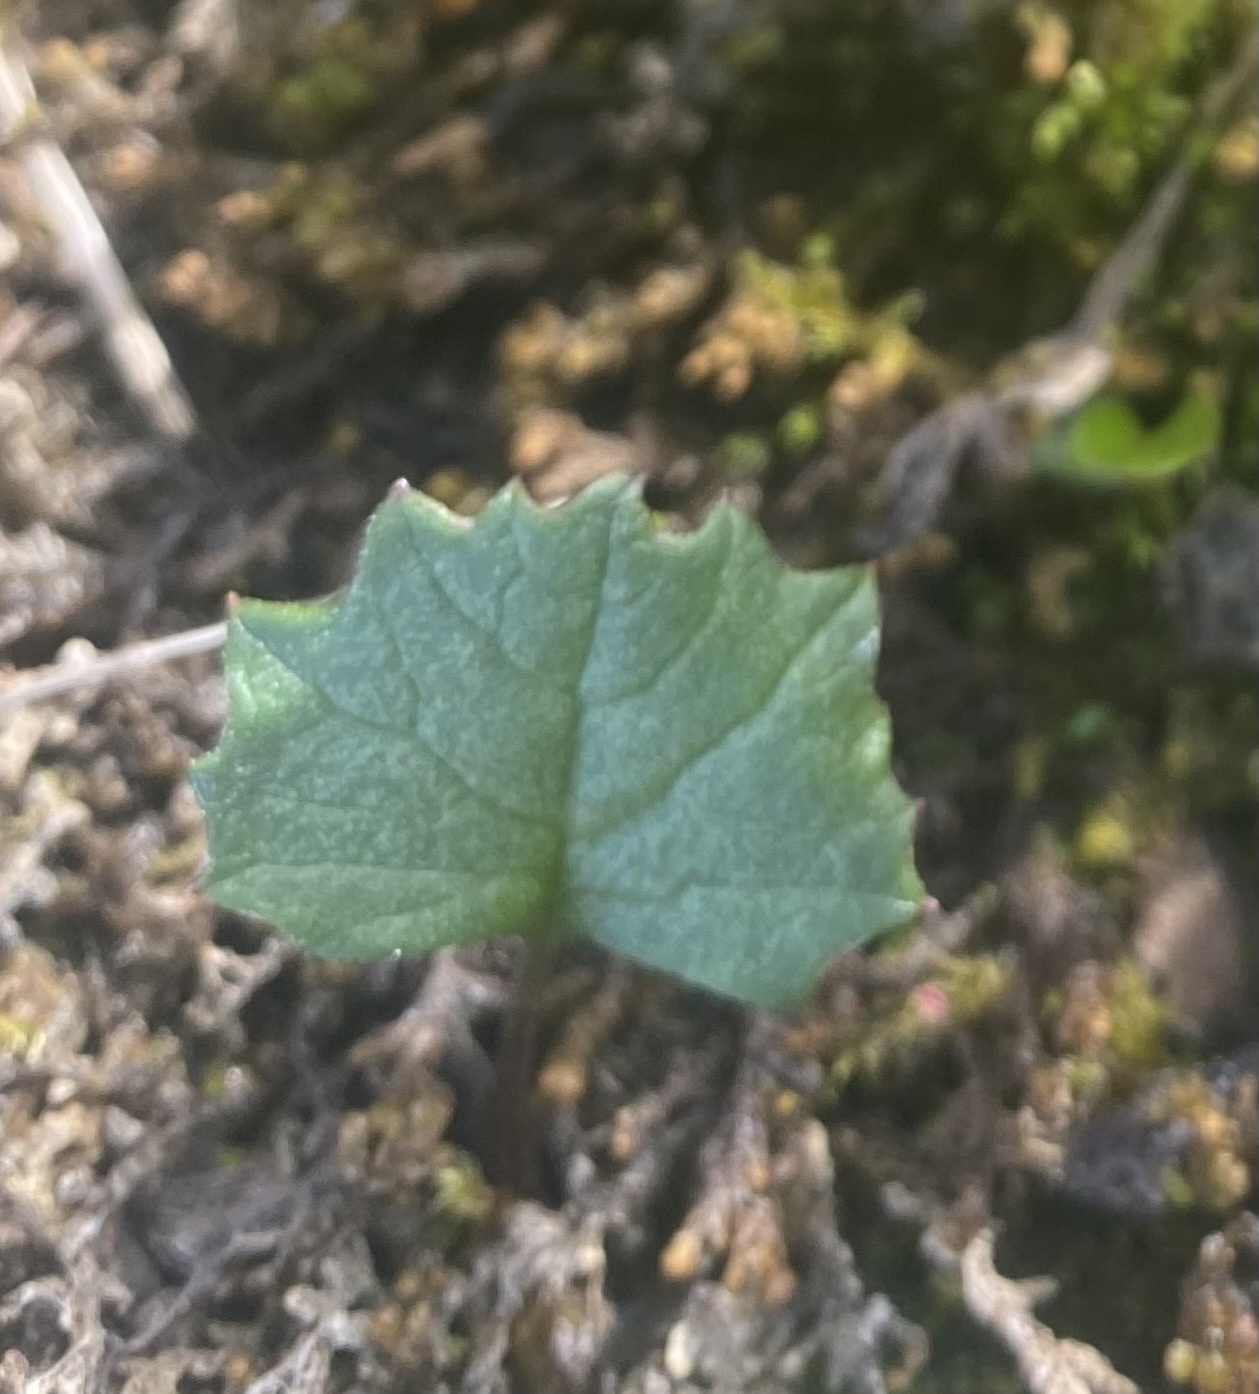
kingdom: Plantae
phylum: Tracheophyta
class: Magnoliopsida
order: Asterales
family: Asteraceae
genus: Endocellion
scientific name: Endocellion glaciale
